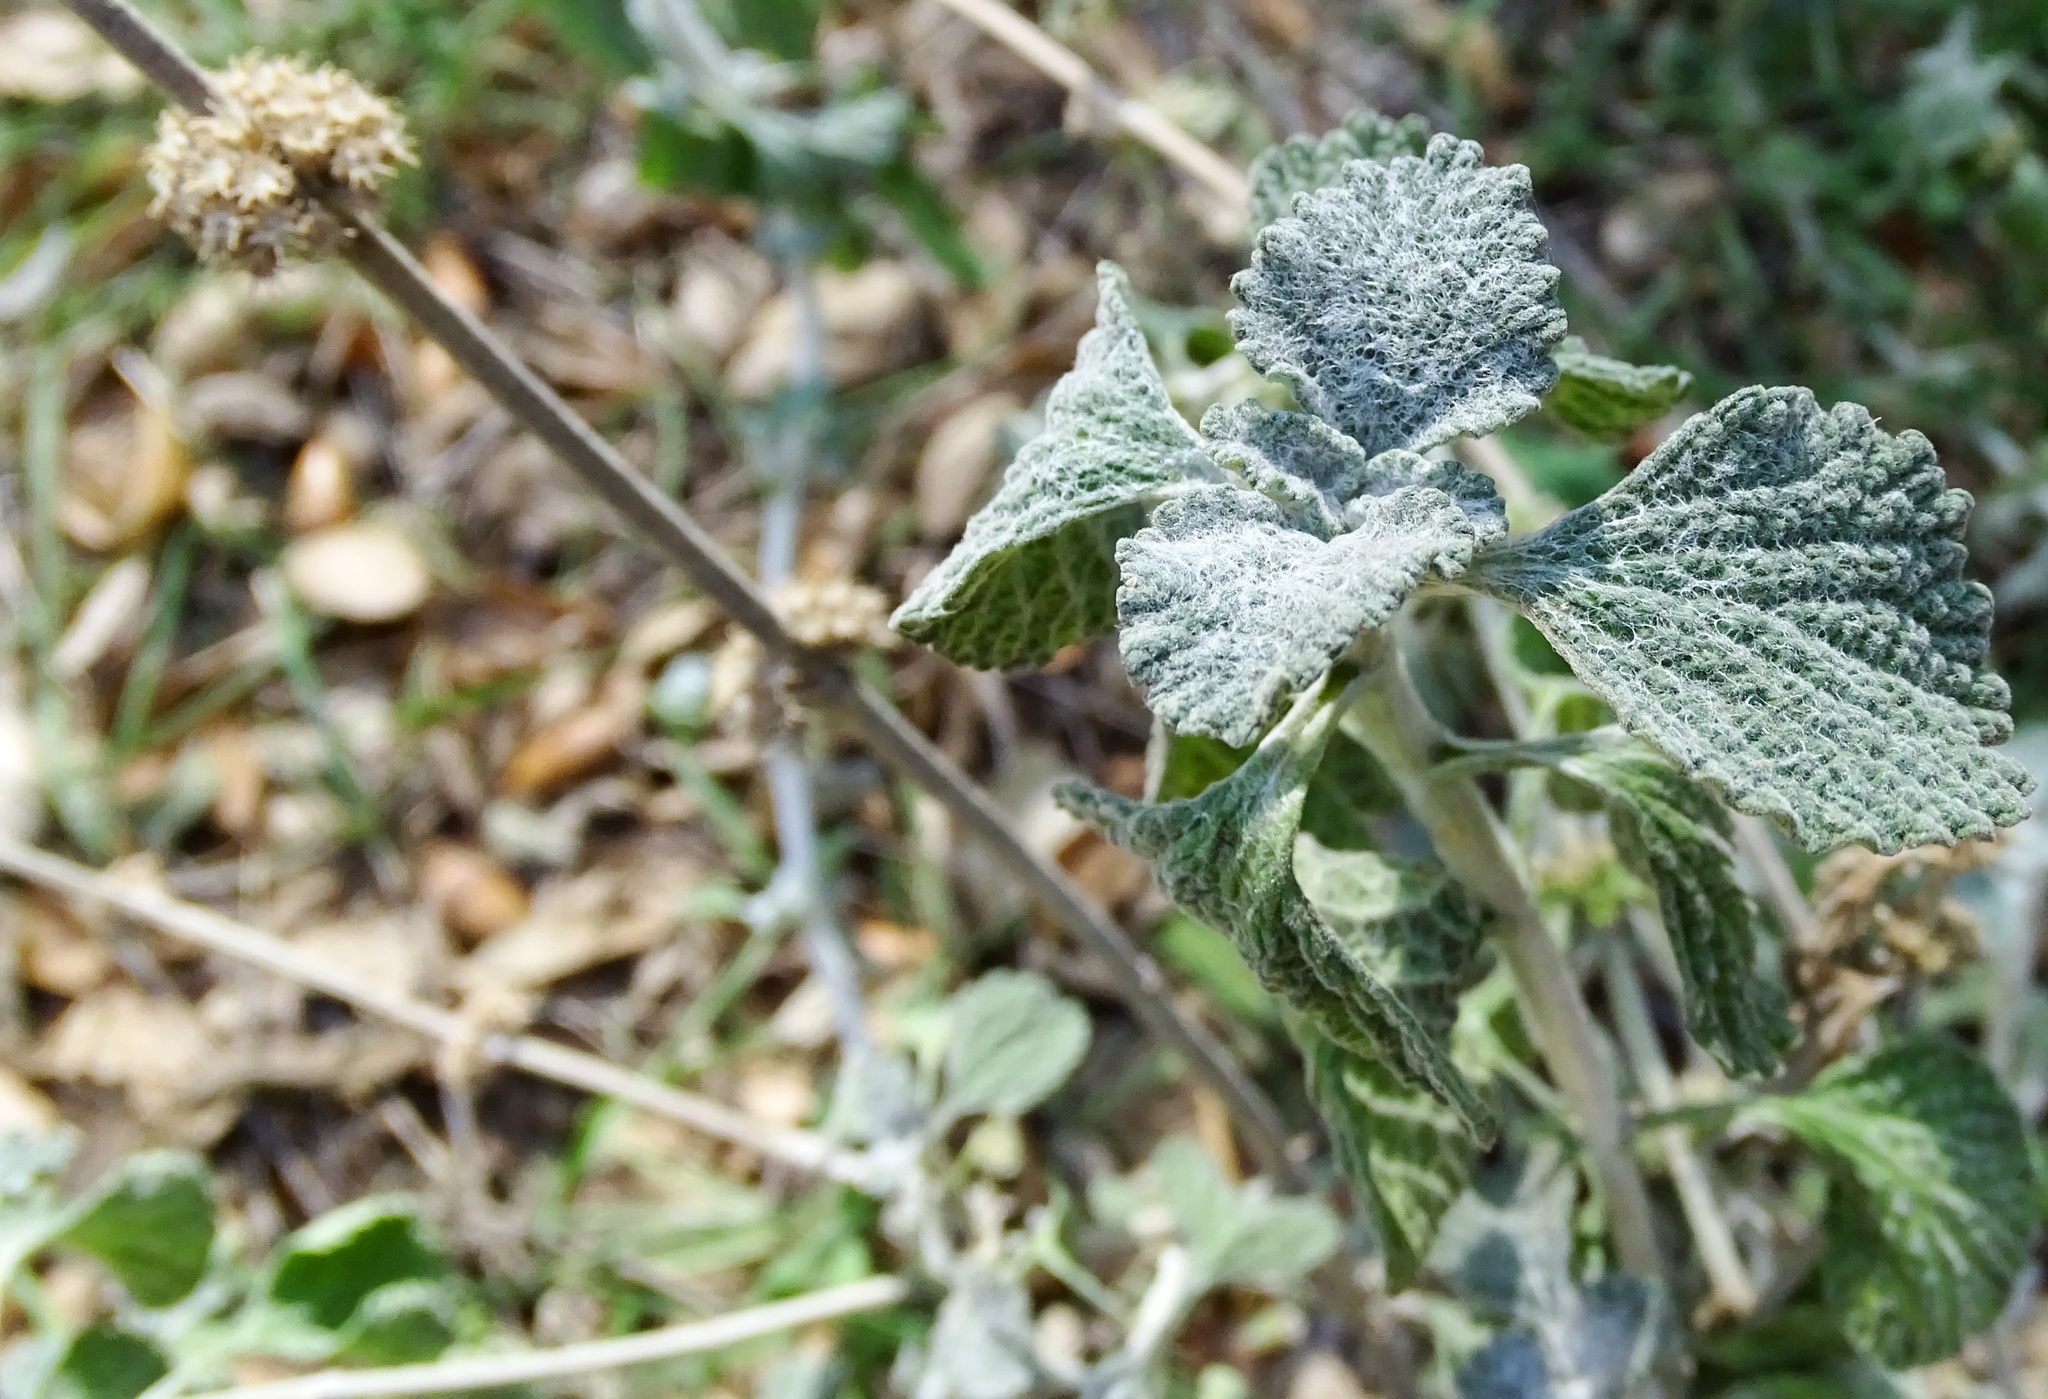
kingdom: Plantae
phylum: Tracheophyta
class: Magnoliopsida
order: Lamiales
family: Lamiaceae
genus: Marrubium
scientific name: Marrubium vulgare
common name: Horehound
